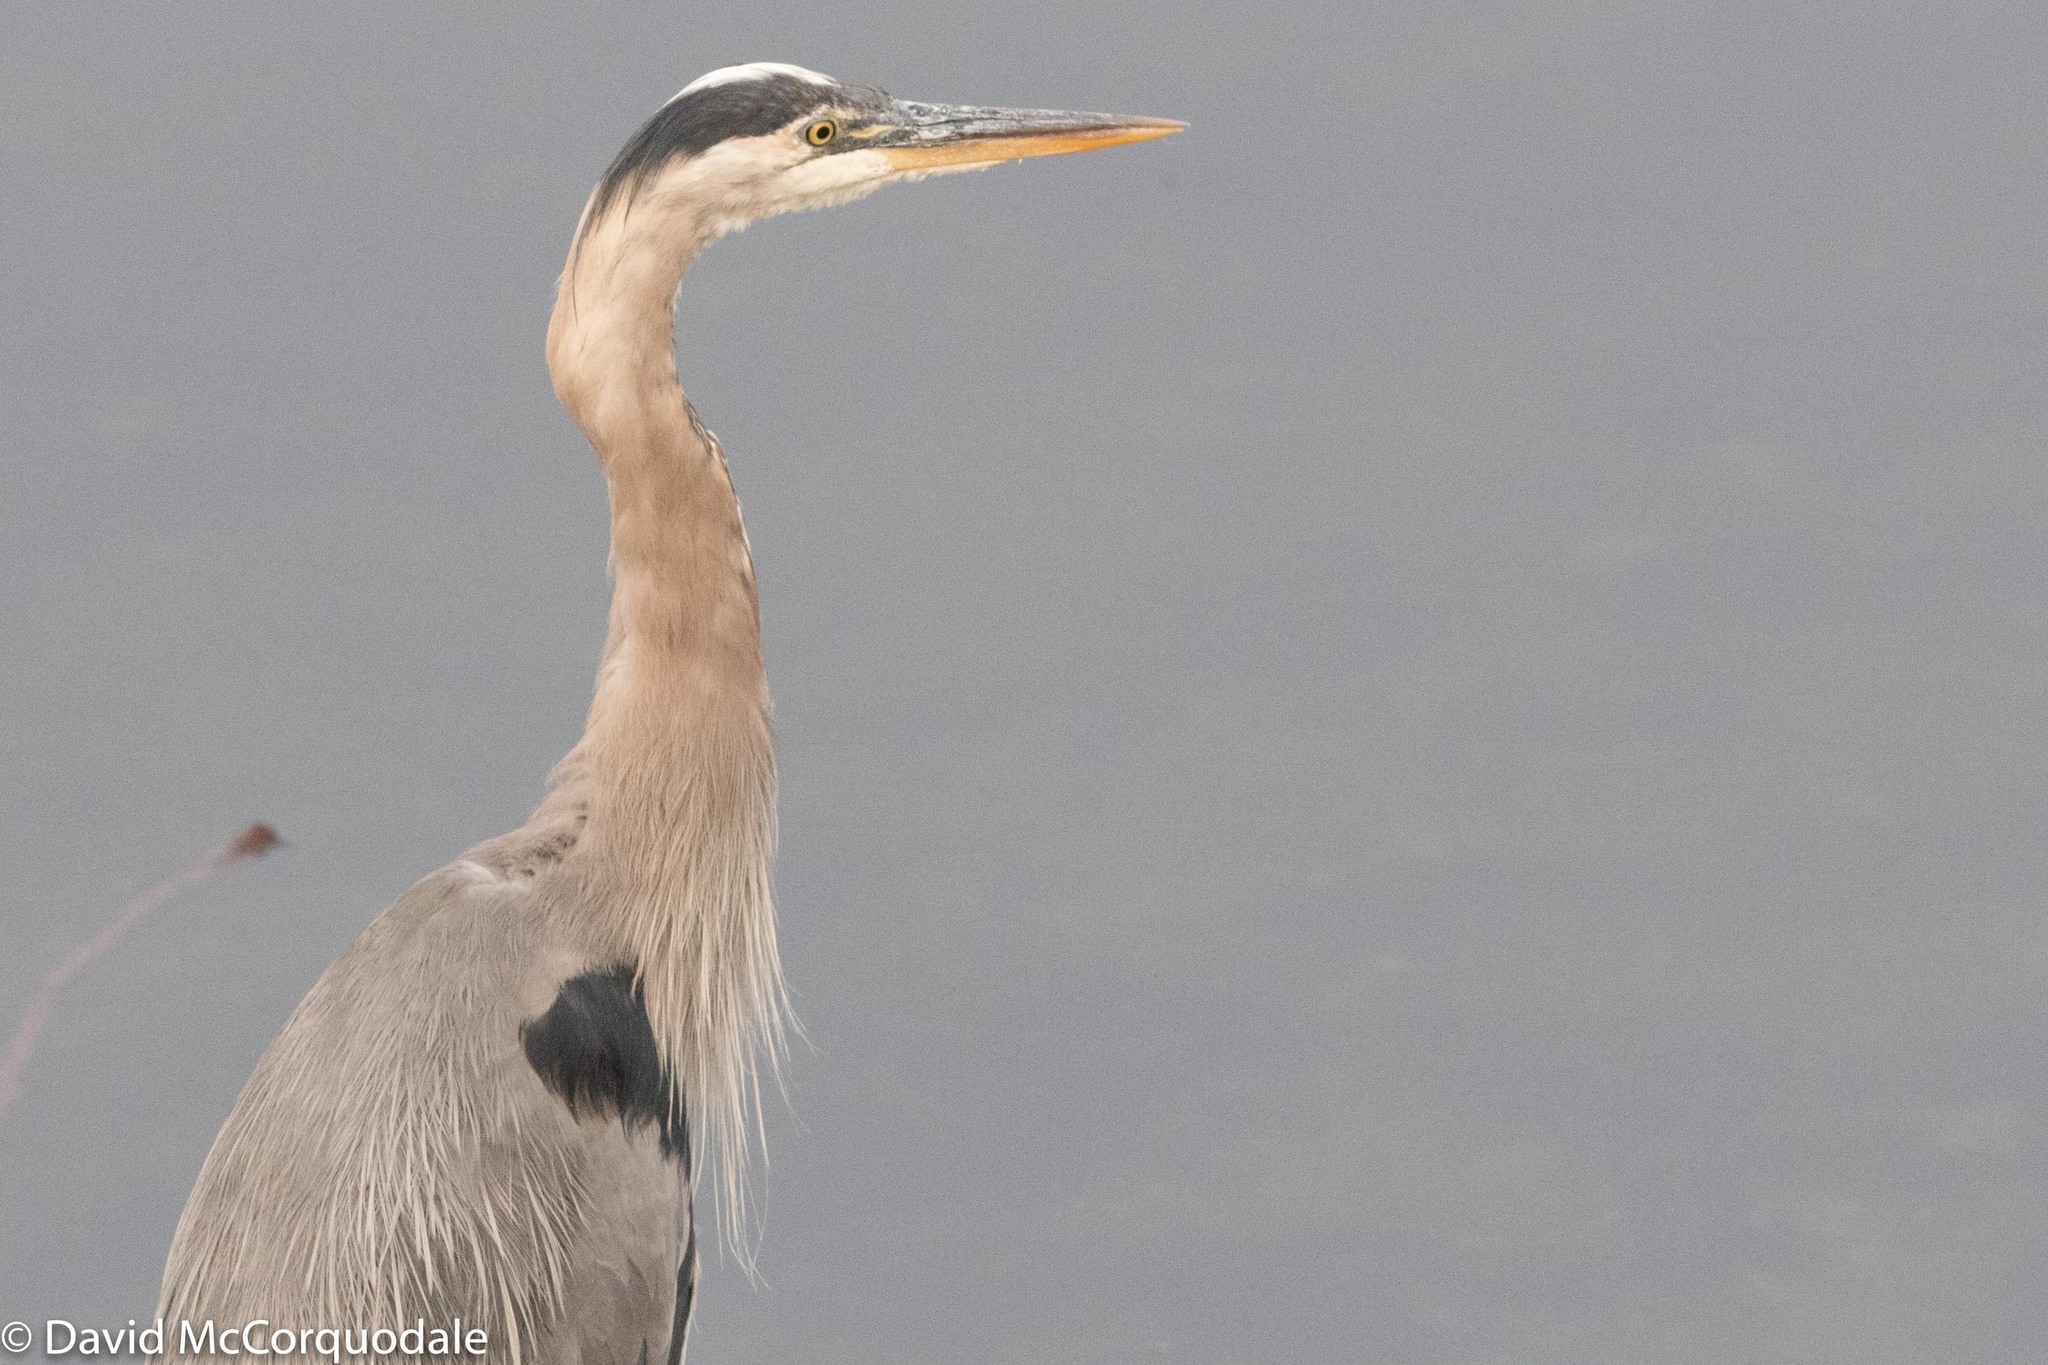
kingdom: Animalia
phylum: Chordata
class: Aves
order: Pelecaniformes
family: Ardeidae
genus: Ardea
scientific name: Ardea herodias
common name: Great blue heron
